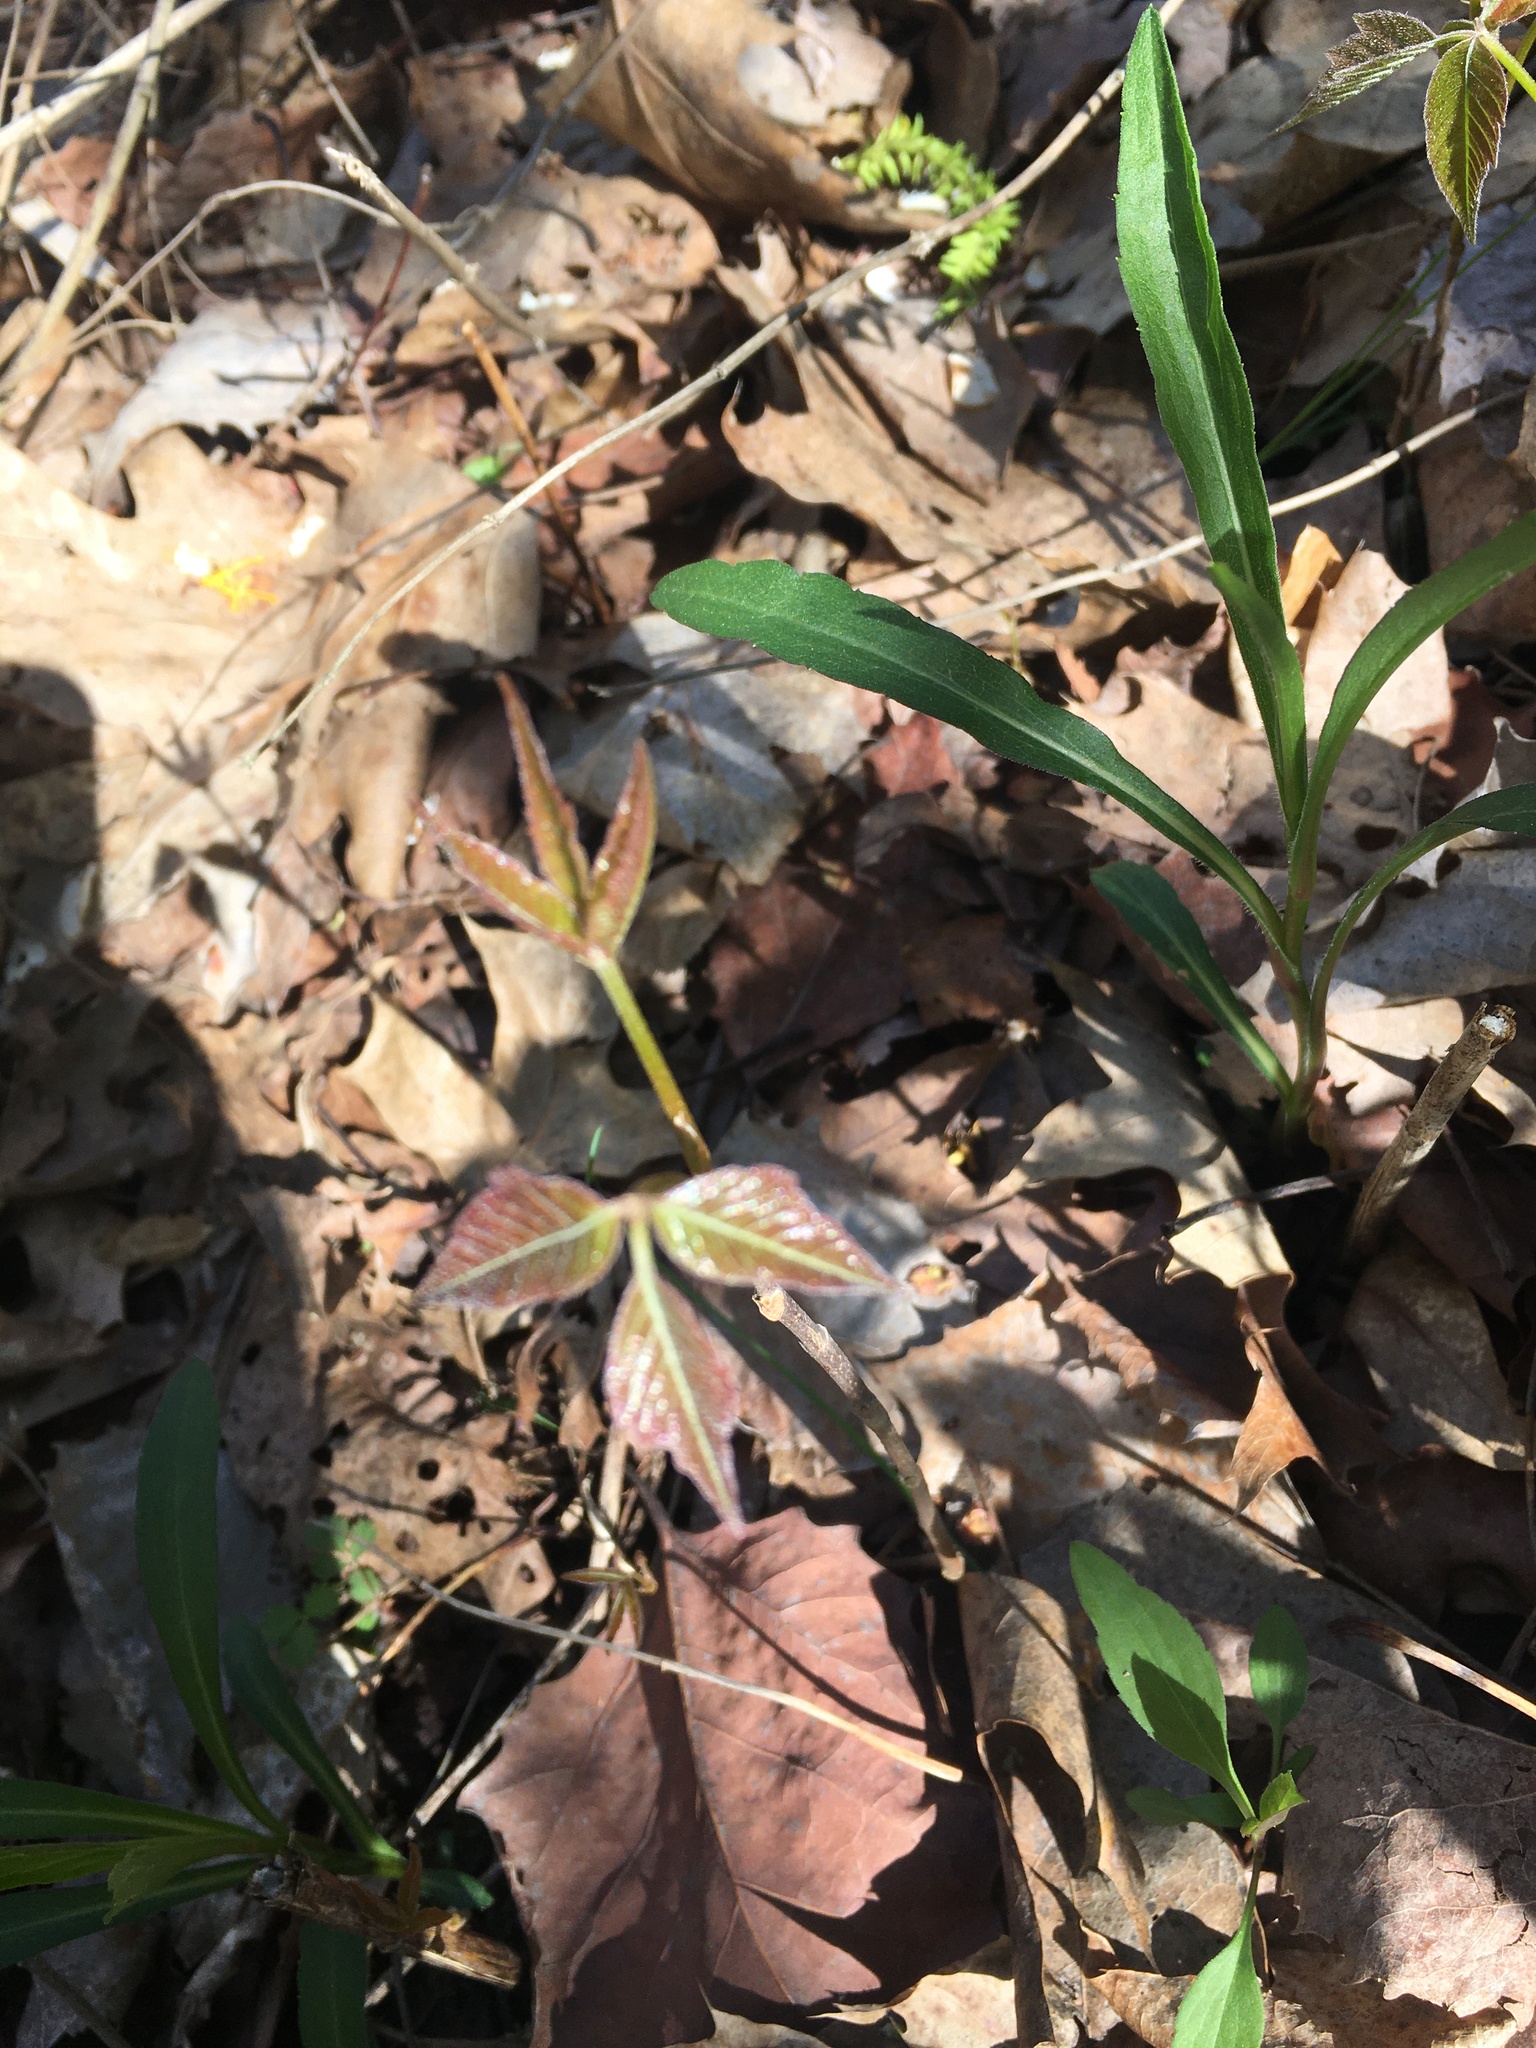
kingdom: Plantae
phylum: Tracheophyta
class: Magnoliopsida
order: Sapindales
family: Anacardiaceae
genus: Toxicodendron
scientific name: Toxicodendron radicans
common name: Poison ivy
